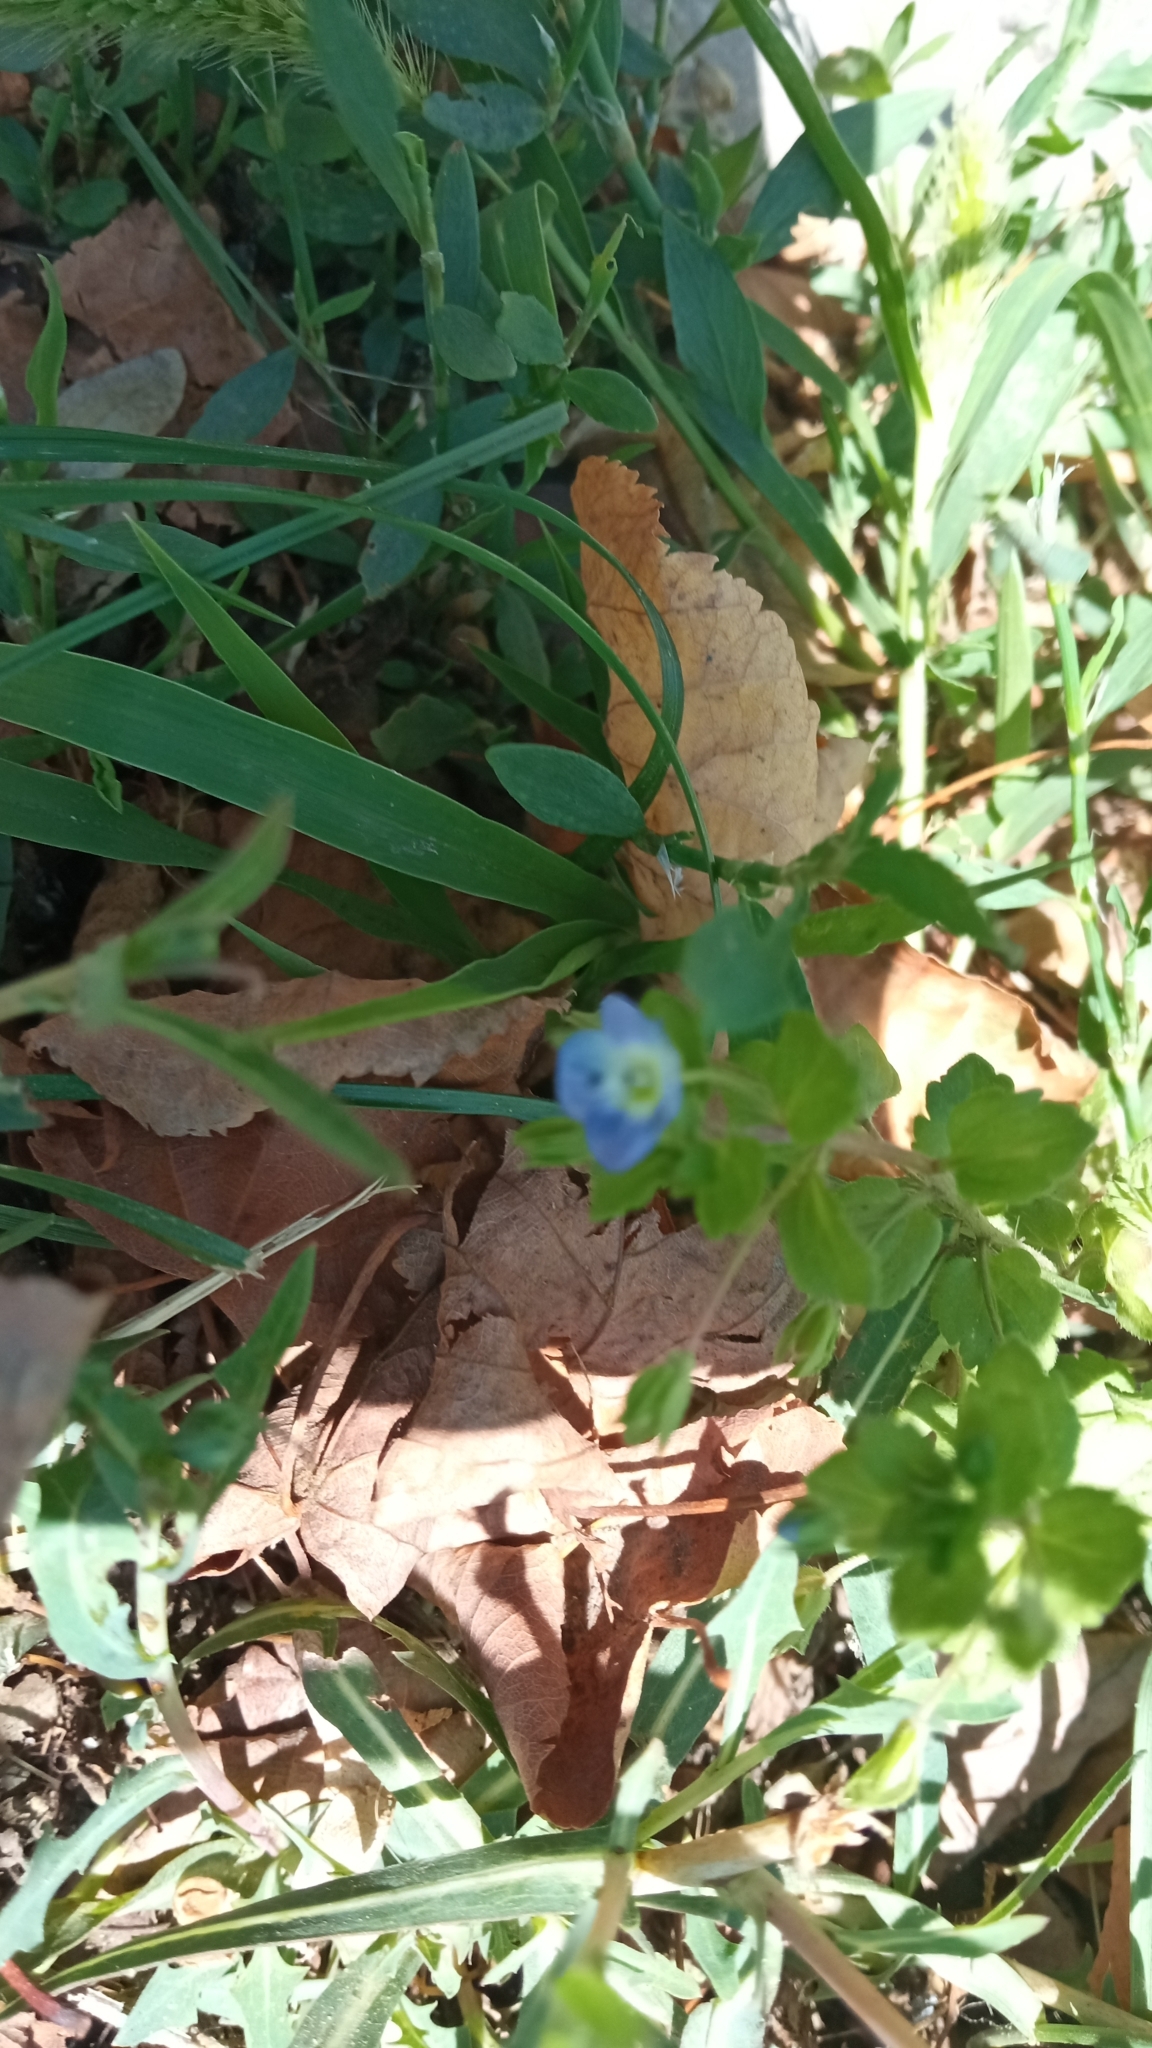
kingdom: Plantae
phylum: Tracheophyta
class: Magnoliopsida
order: Lamiales
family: Plantaginaceae
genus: Veronica
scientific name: Veronica persica
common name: Common field-speedwell
